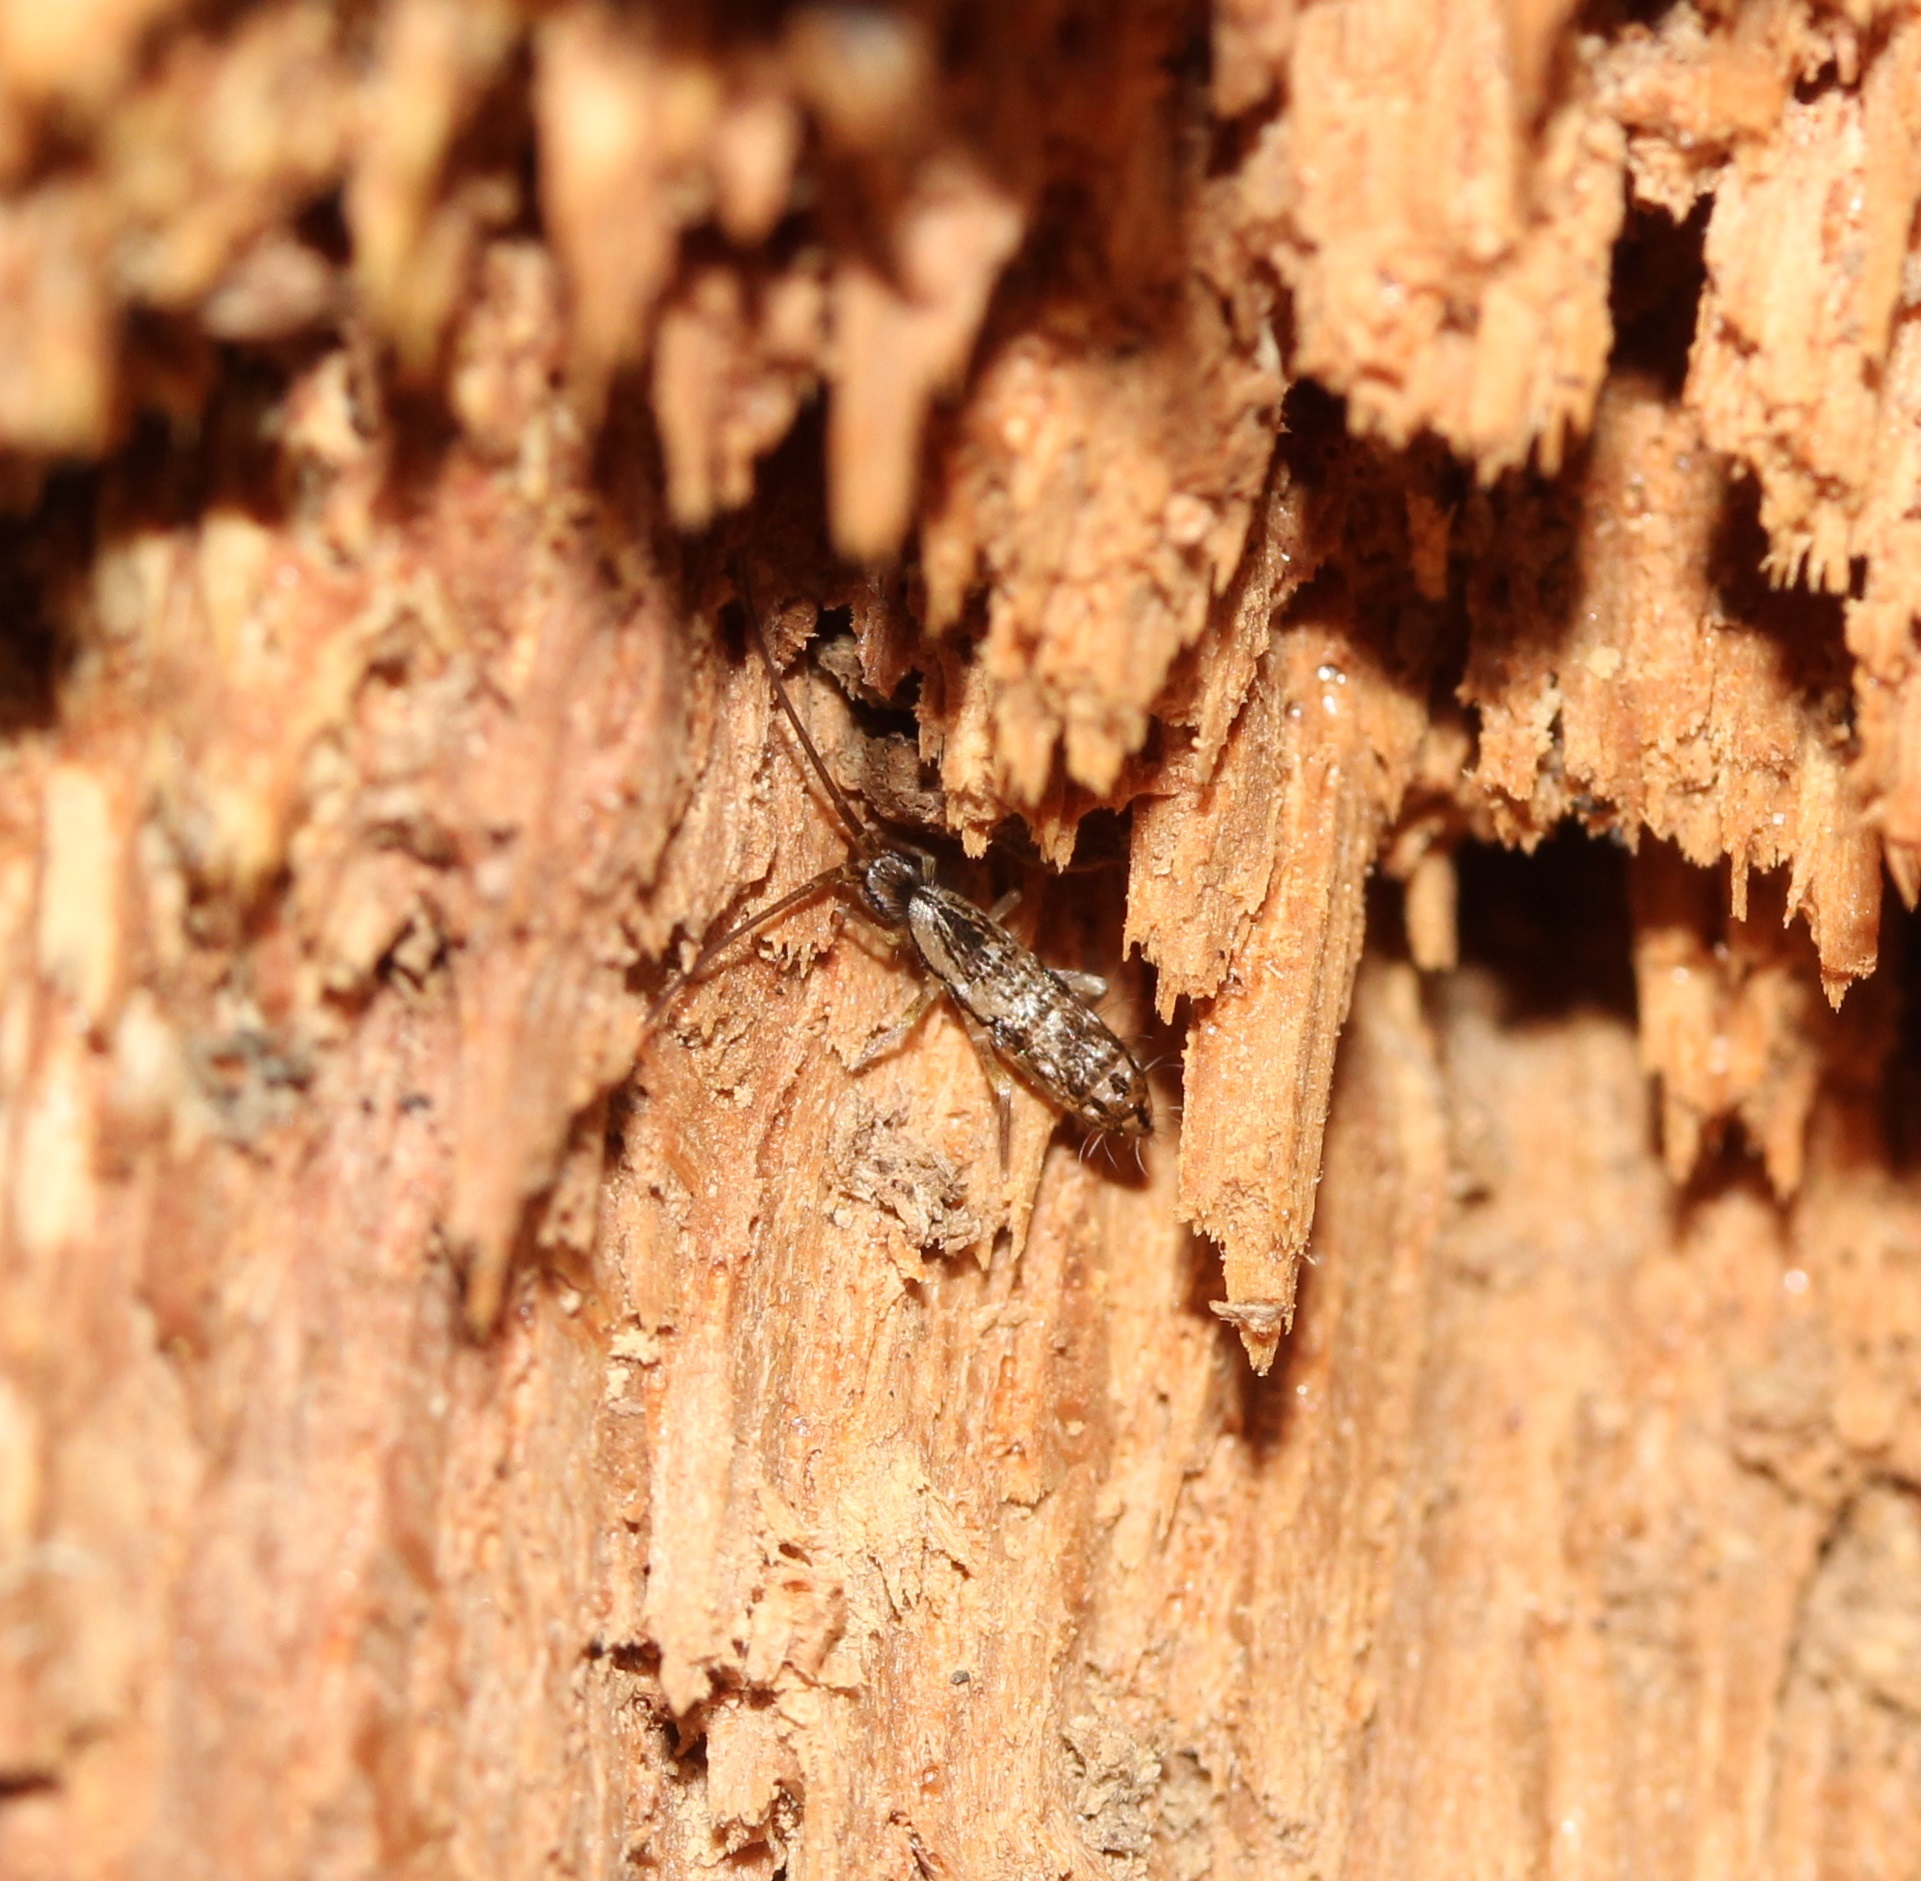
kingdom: Animalia
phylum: Arthropoda
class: Collembola
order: Entomobryomorpha
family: Tomoceridae
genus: Pogonognathellus
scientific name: Pogonognathellus elongatus
